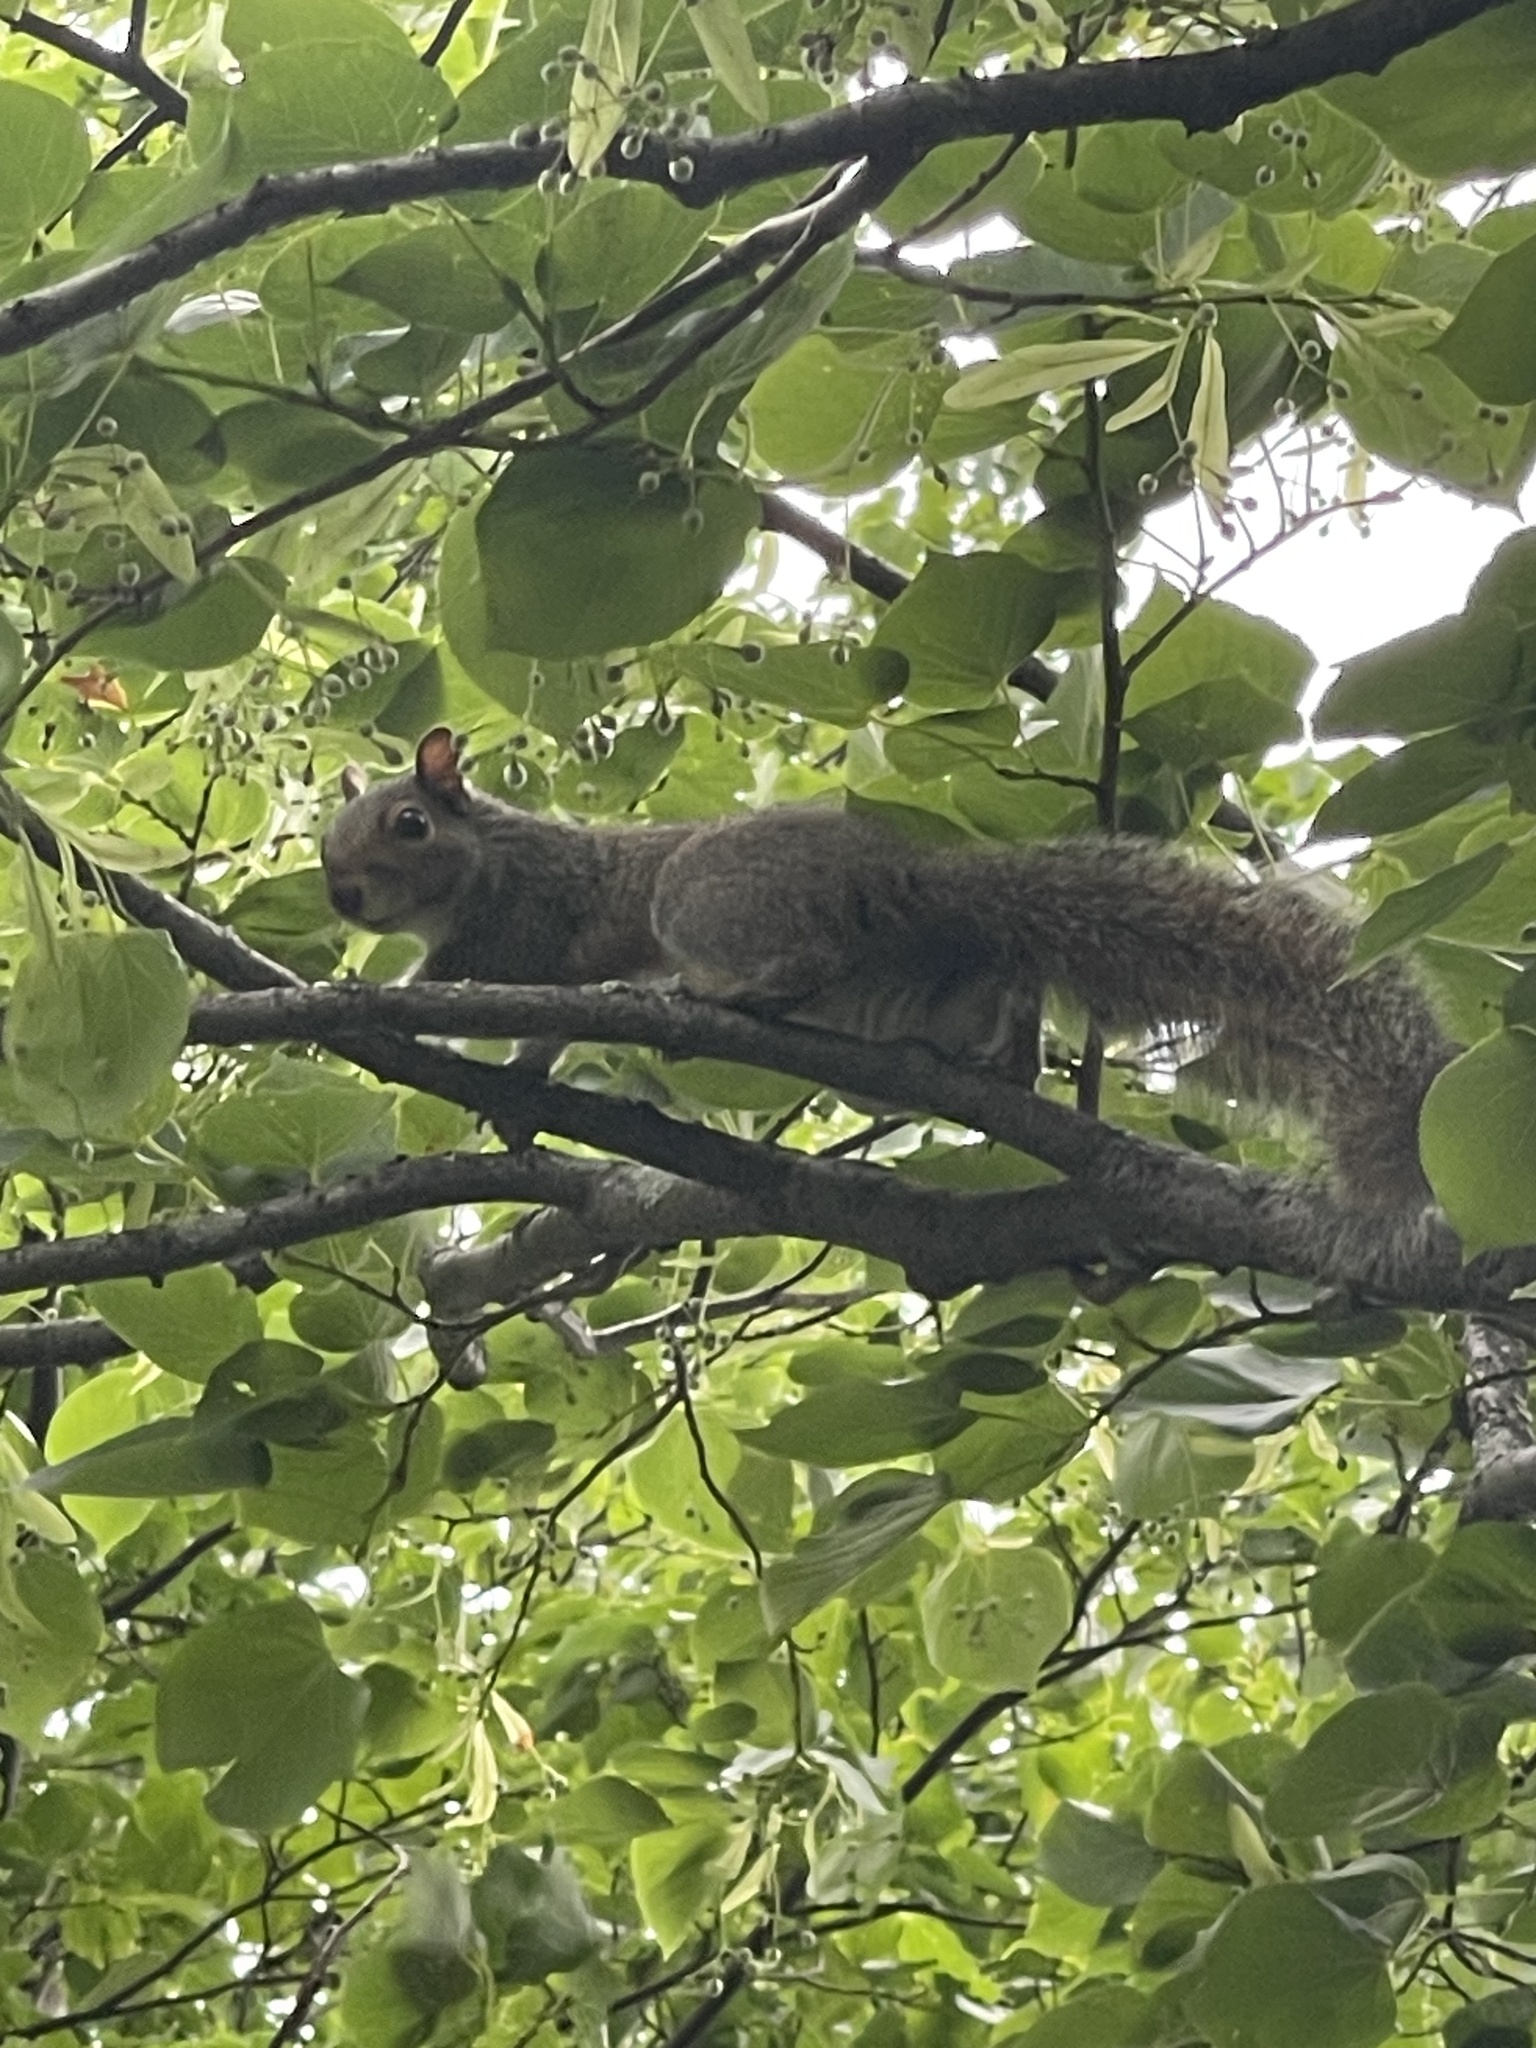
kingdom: Animalia
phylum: Chordata
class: Mammalia
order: Rodentia
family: Sciuridae
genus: Sciurus
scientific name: Sciurus carolinensis
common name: Eastern gray squirrel
